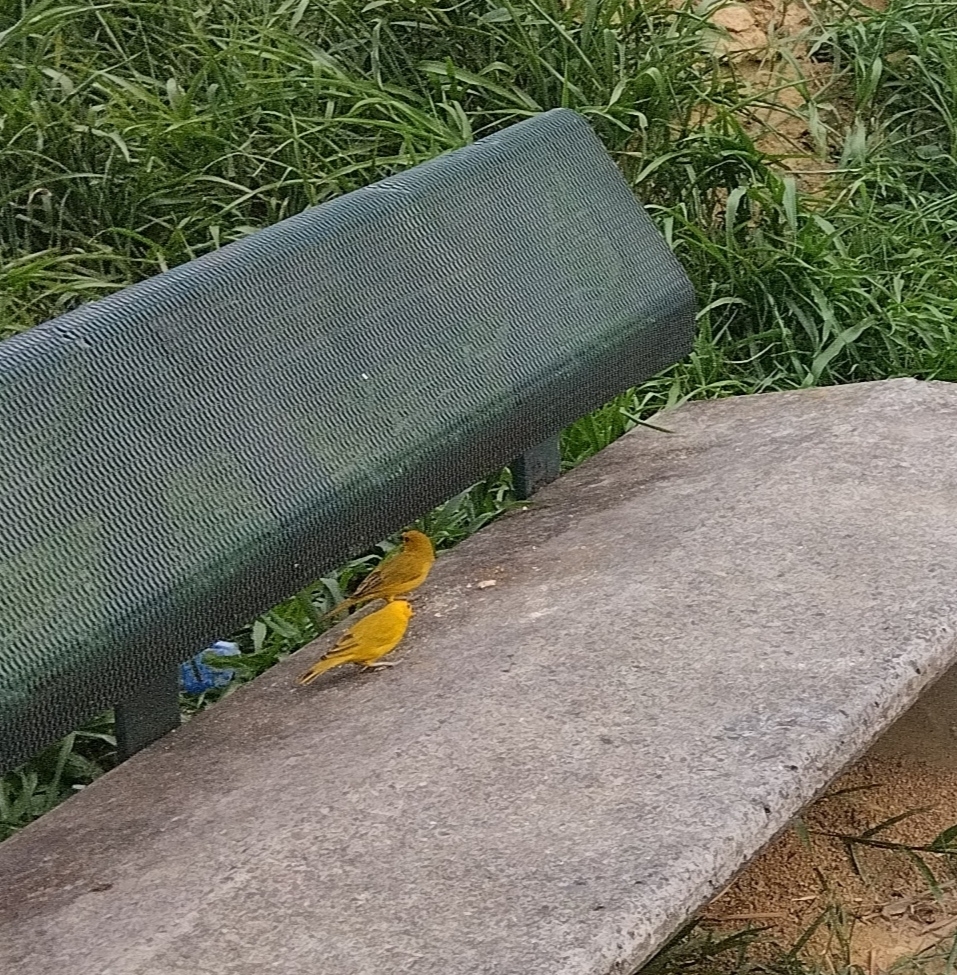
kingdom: Animalia
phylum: Chordata
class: Aves
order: Passeriformes
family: Thraupidae
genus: Sicalis
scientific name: Sicalis flaveola
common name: Saffron finch
